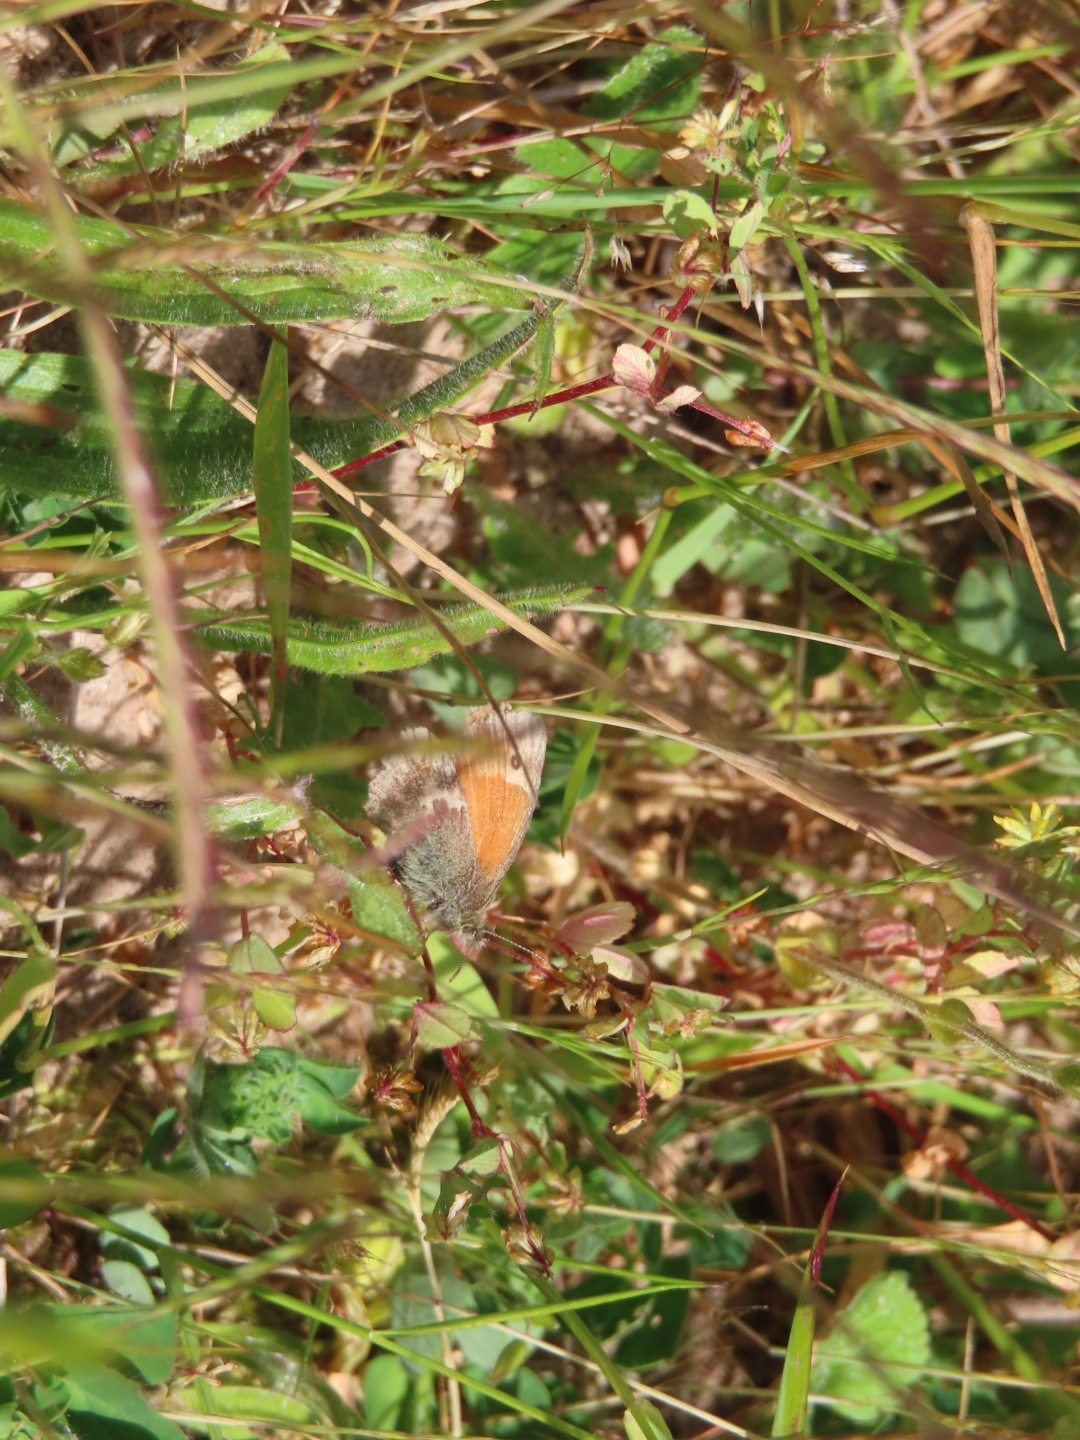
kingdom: Animalia
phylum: Arthropoda
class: Insecta
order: Lepidoptera
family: Nymphalidae
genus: Coenonympha
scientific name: Coenonympha pamphilus
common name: Small heath
